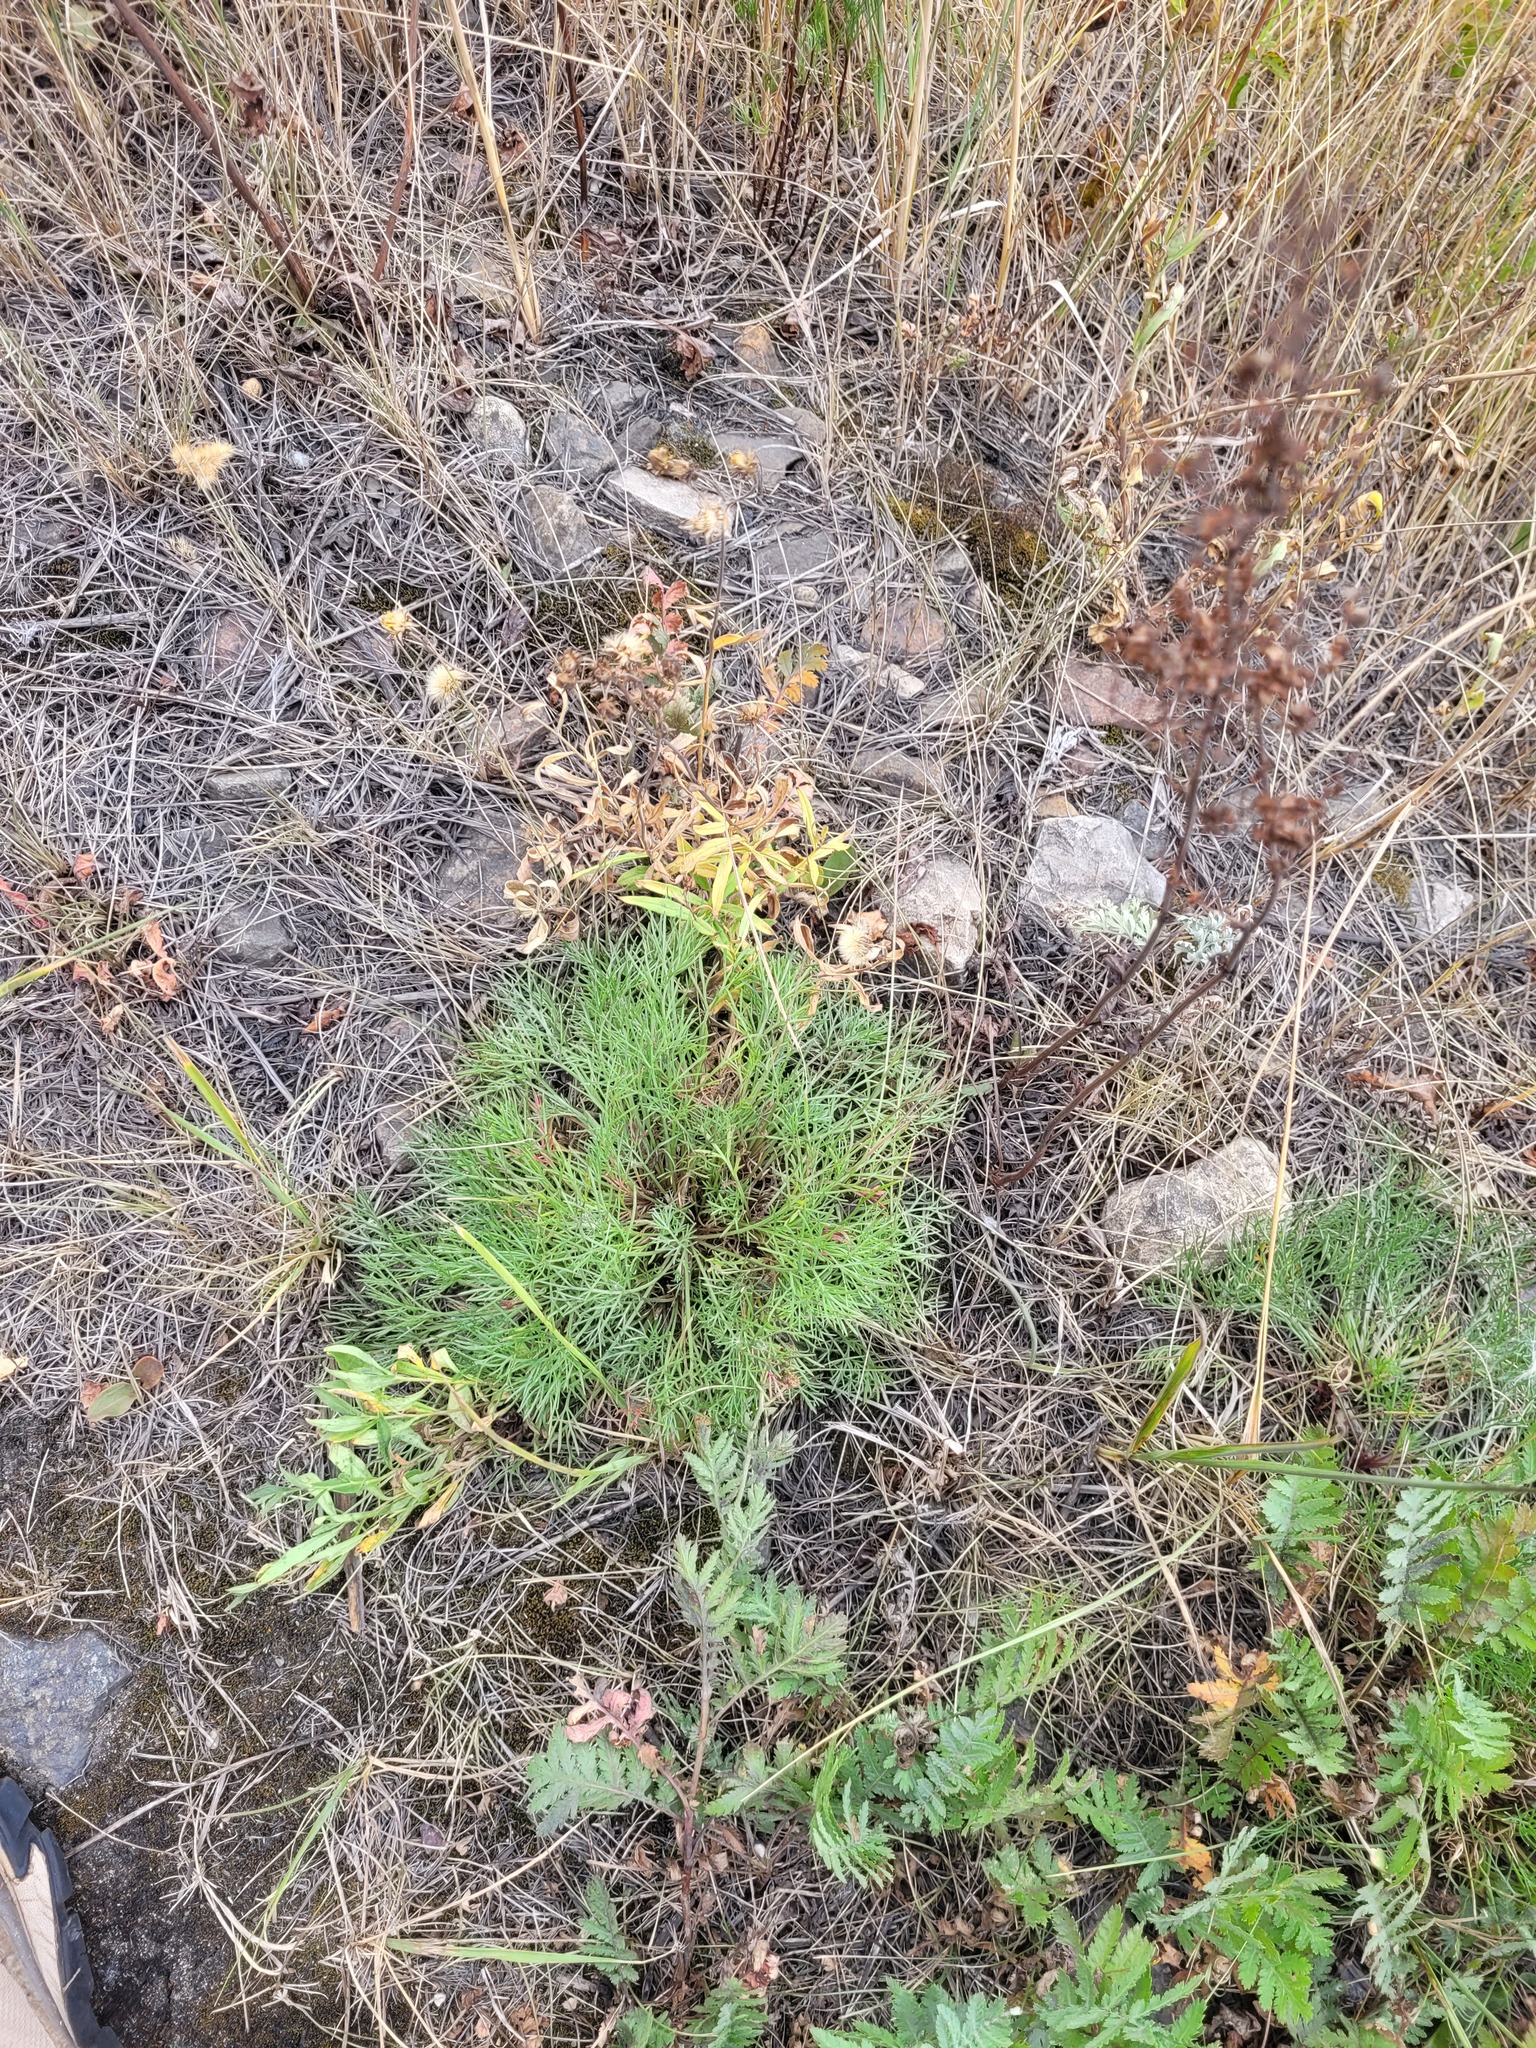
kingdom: Plantae
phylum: Tracheophyta
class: Magnoliopsida
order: Asterales
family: Asteraceae
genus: Artemisia
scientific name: Artemisia campestris
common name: Field wormwood
